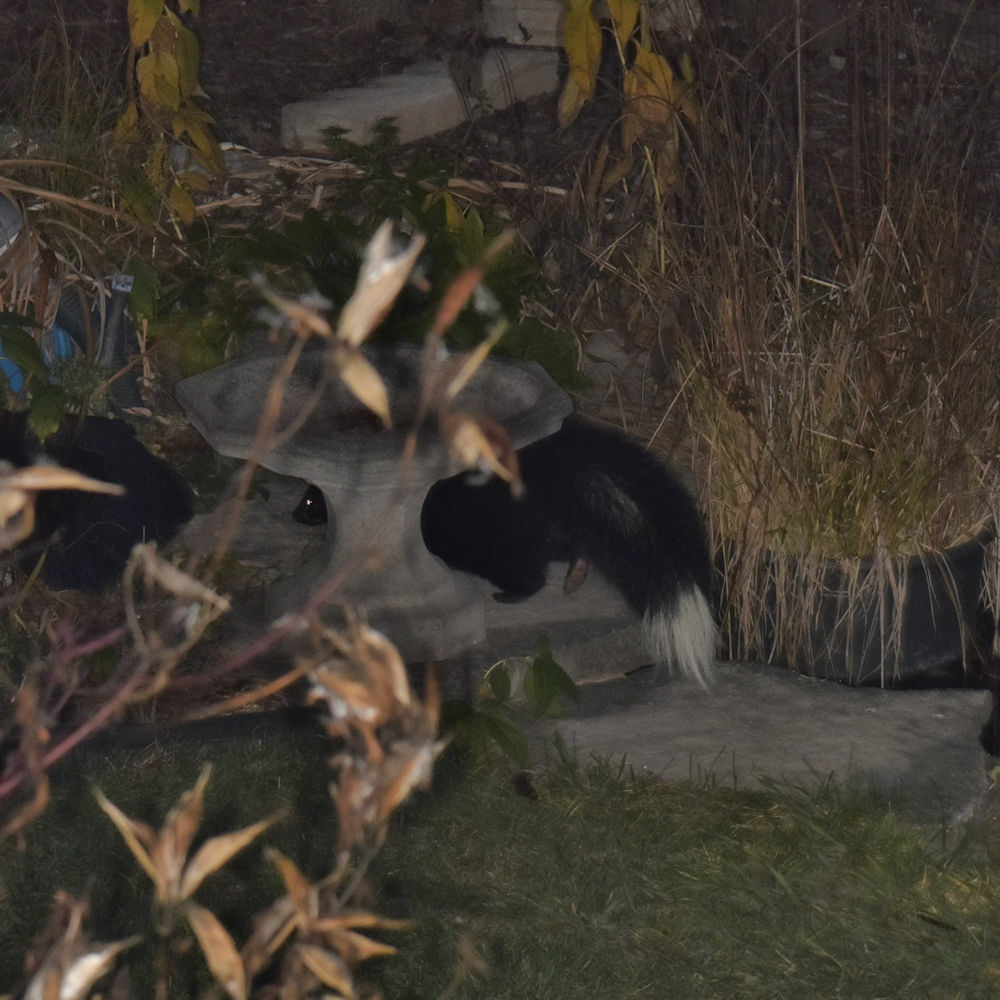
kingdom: Animalia
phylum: Chordata
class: Mammalia
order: Carnivora
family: Mephitidae
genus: Mephitis
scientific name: Mephitis mephitis
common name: Striped skunk
